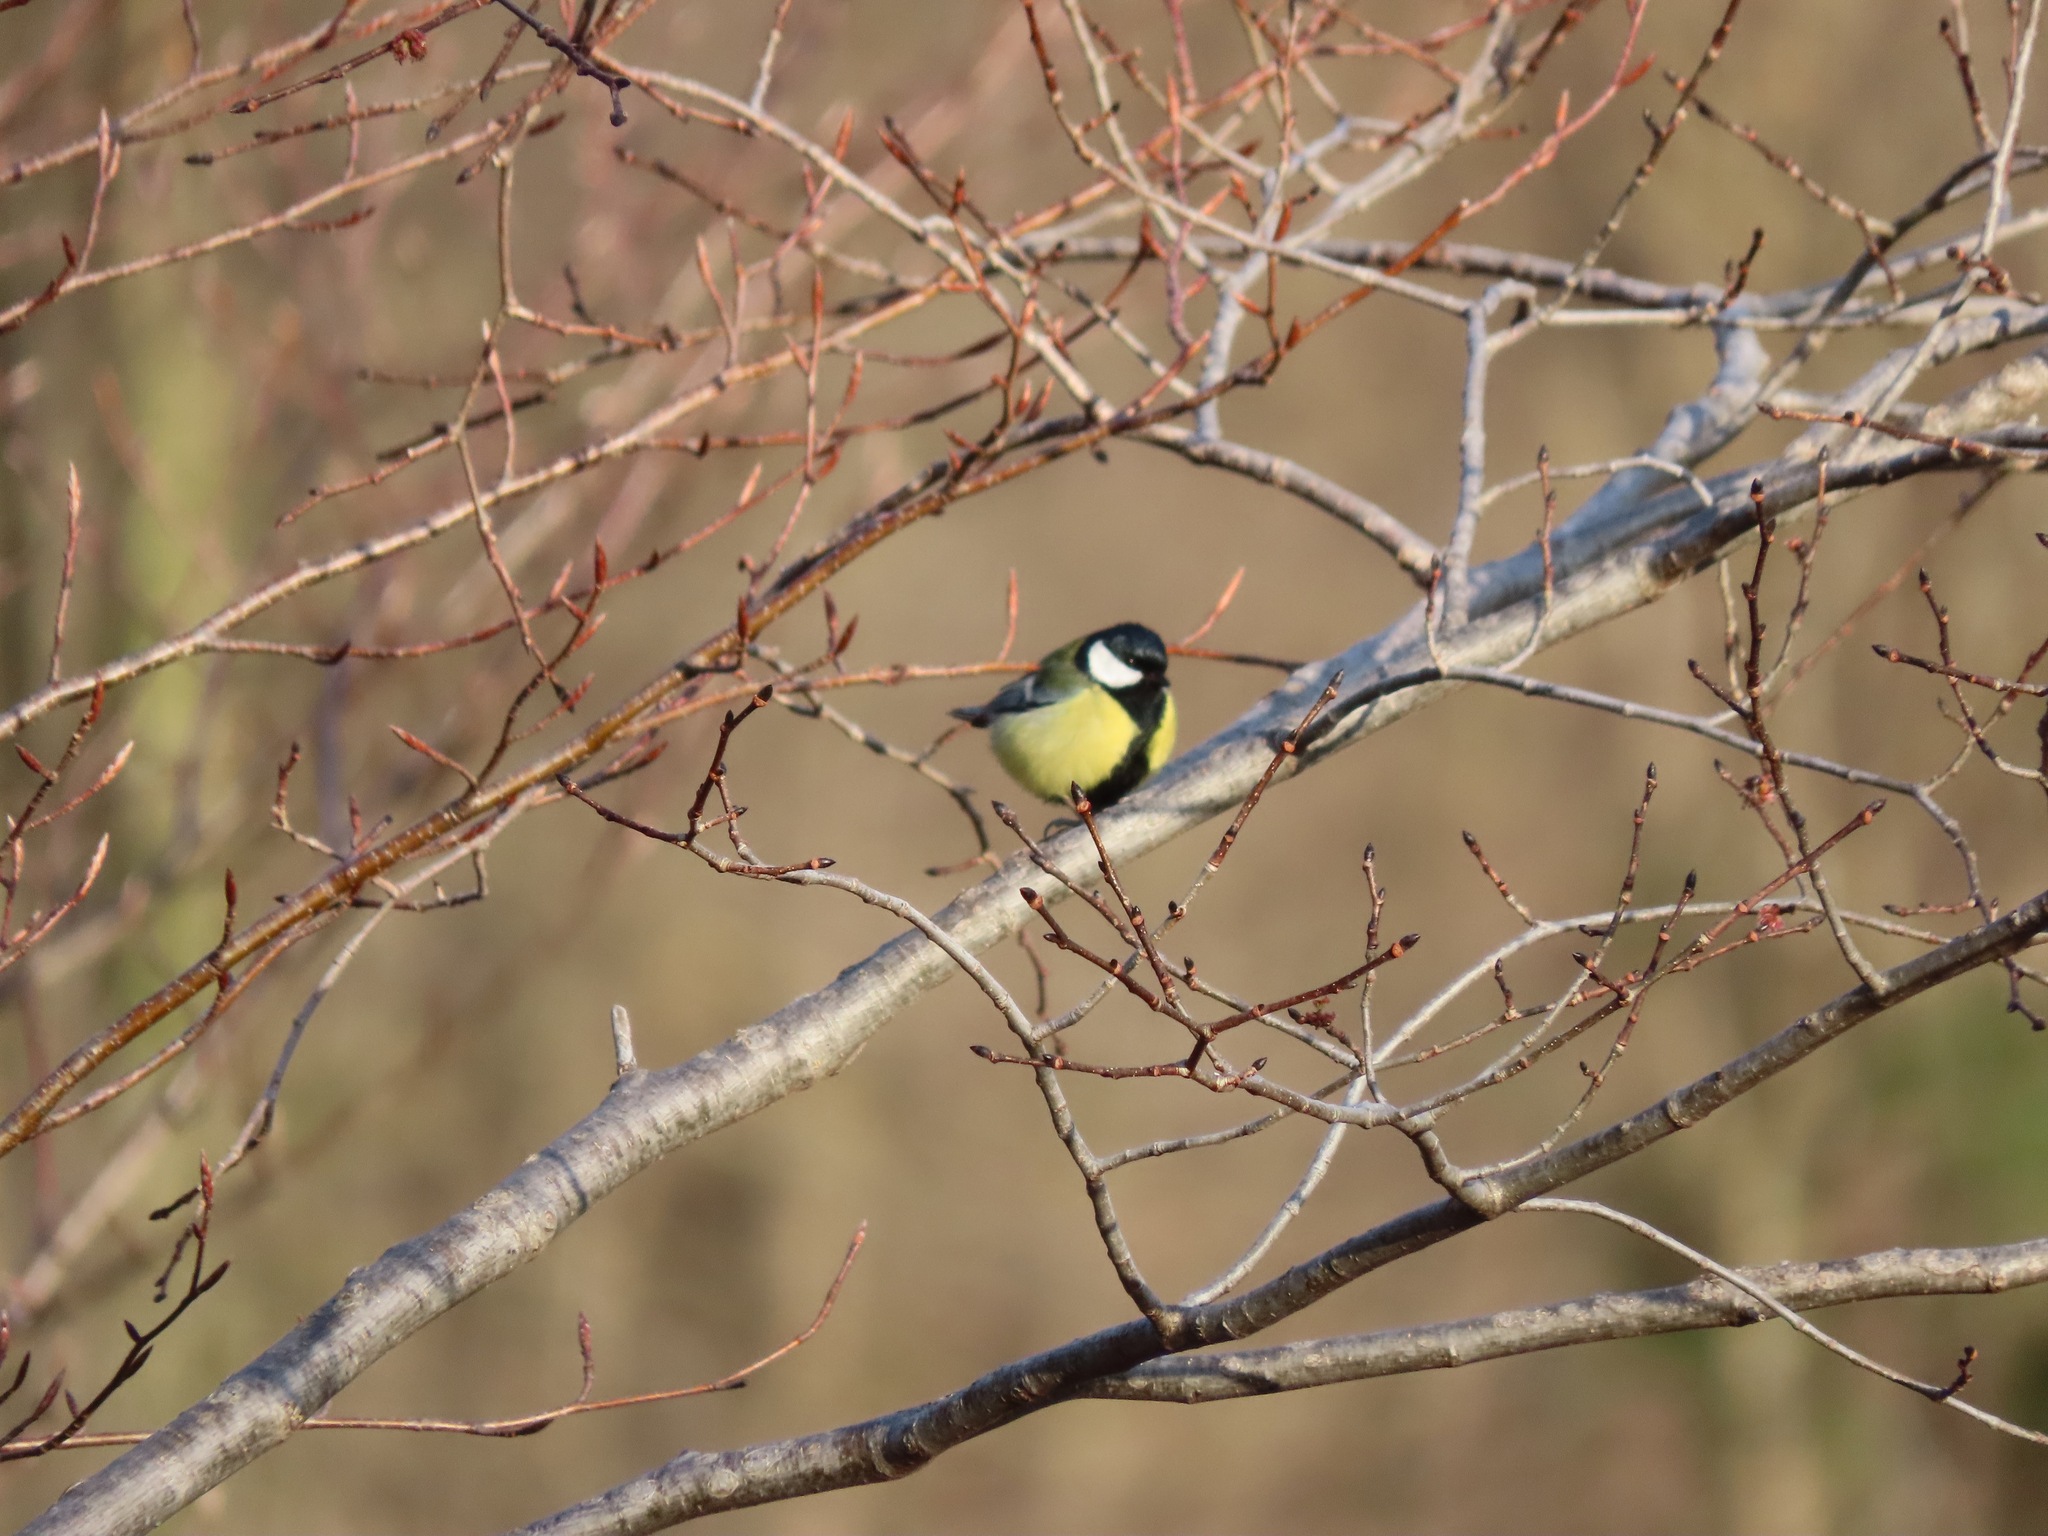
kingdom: Animalia
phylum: Chordata
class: Aves
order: Passeriformes
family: Paridae
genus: Parus
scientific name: Parus major
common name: Great tit
